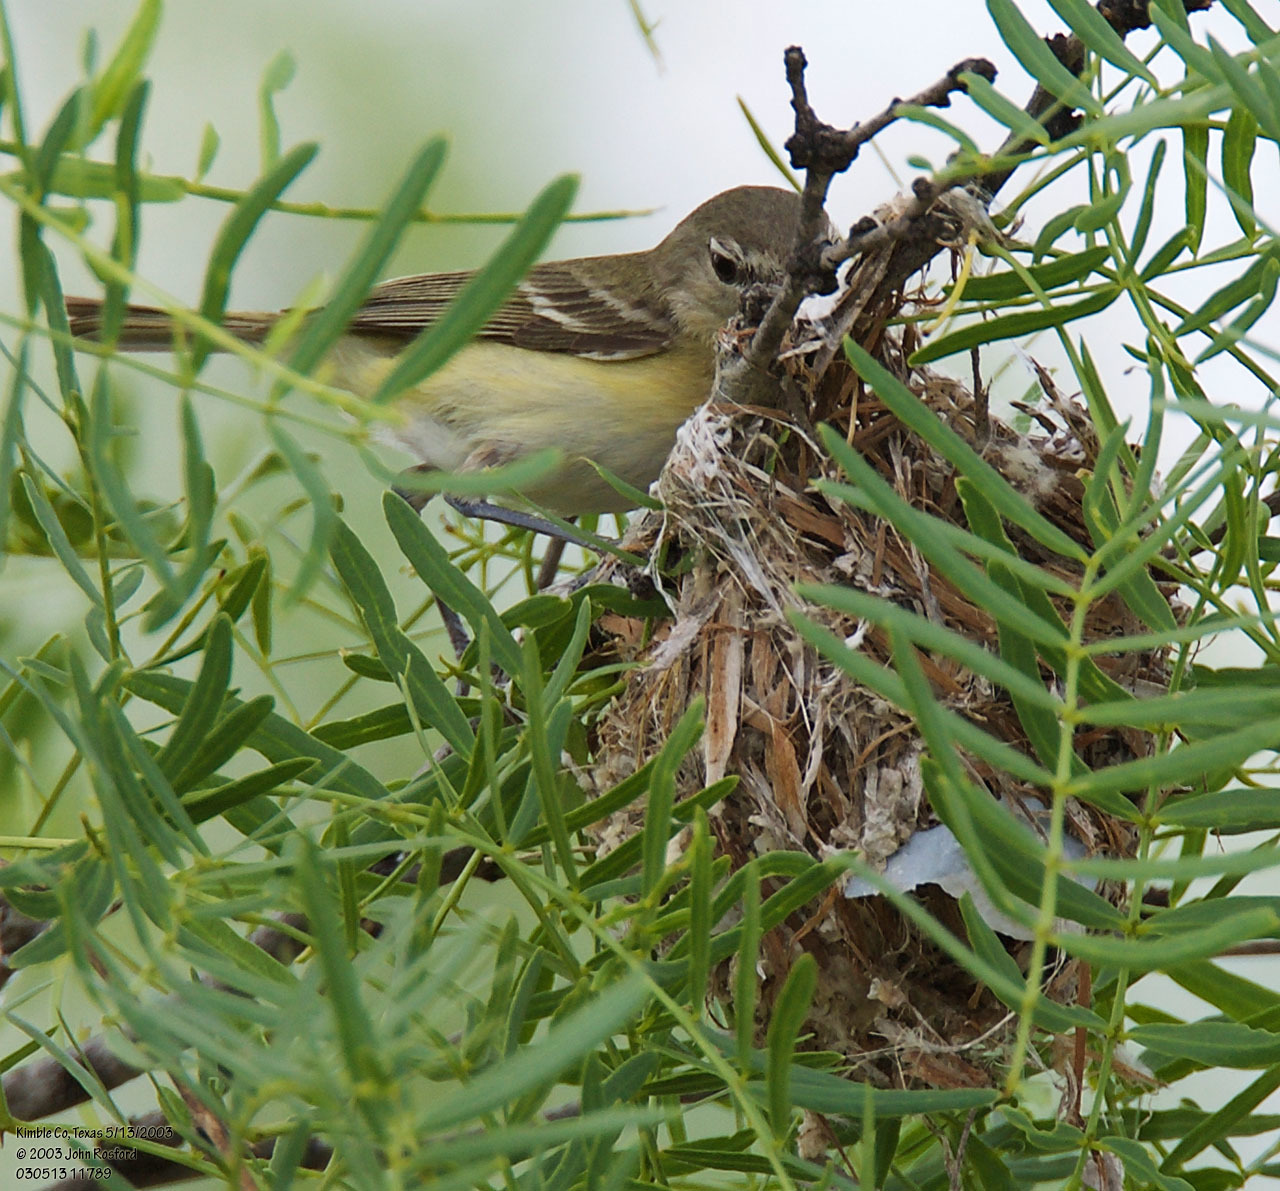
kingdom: Animalia
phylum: Chordata
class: Aves
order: Passeriformes
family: Vireonidae
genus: Vireo
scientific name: Vireo bellii
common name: Bell's vireo
